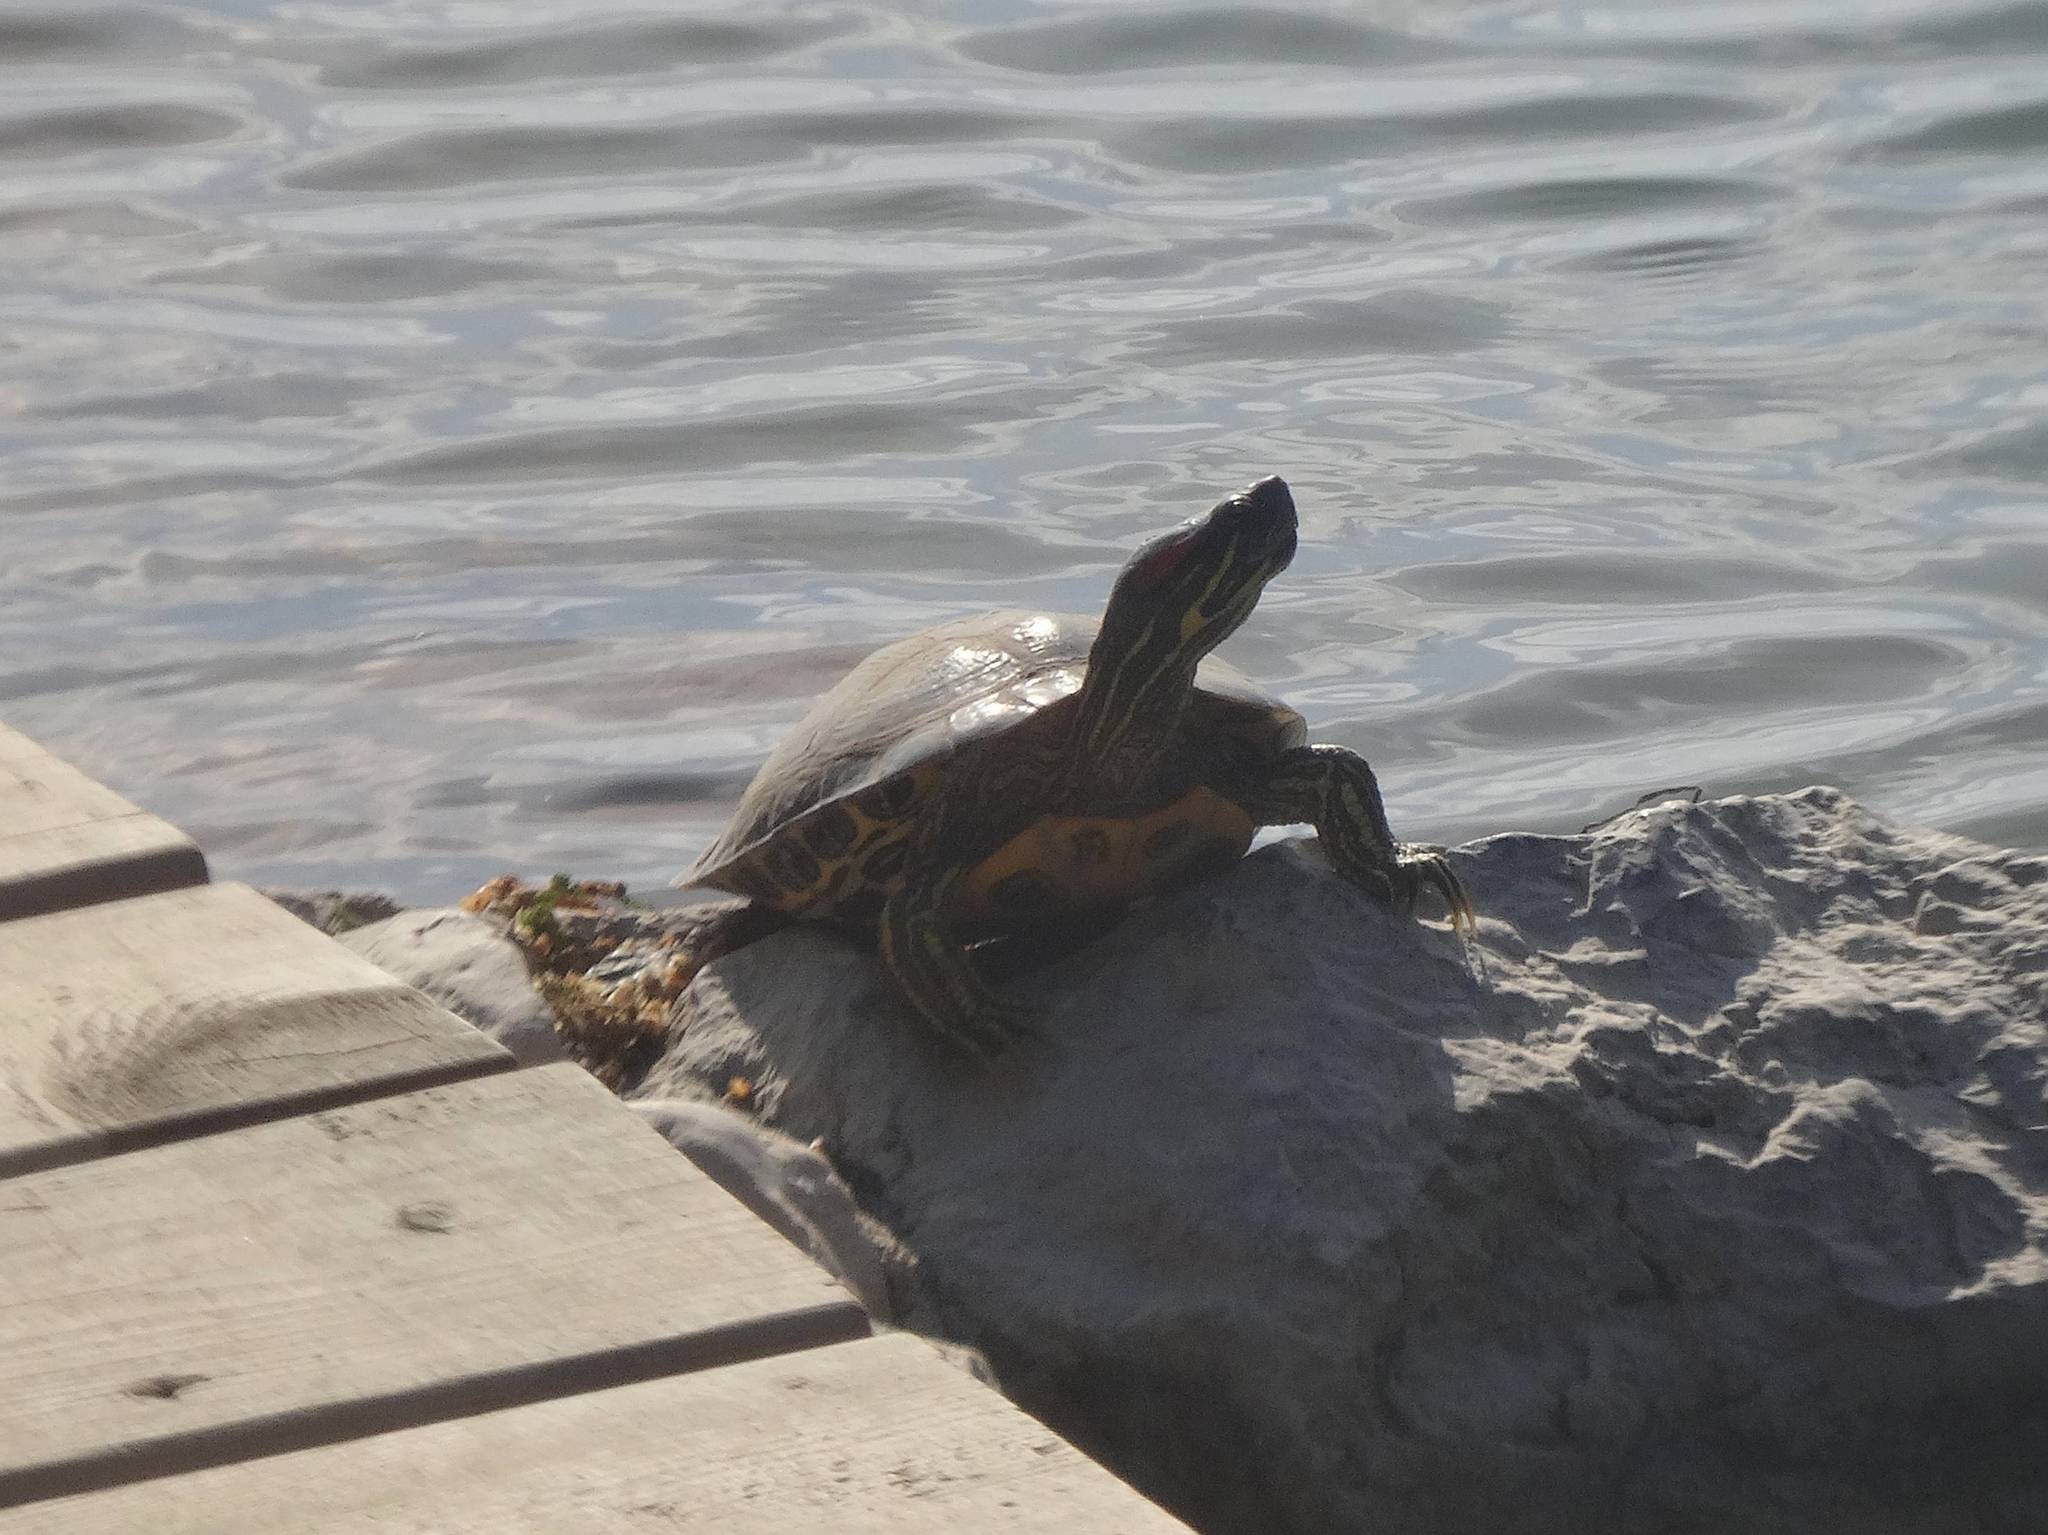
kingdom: Animalia
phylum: Chordata
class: Testudines
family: Emydidae
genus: Trachemys
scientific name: Trachemys scripta
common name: Slider
